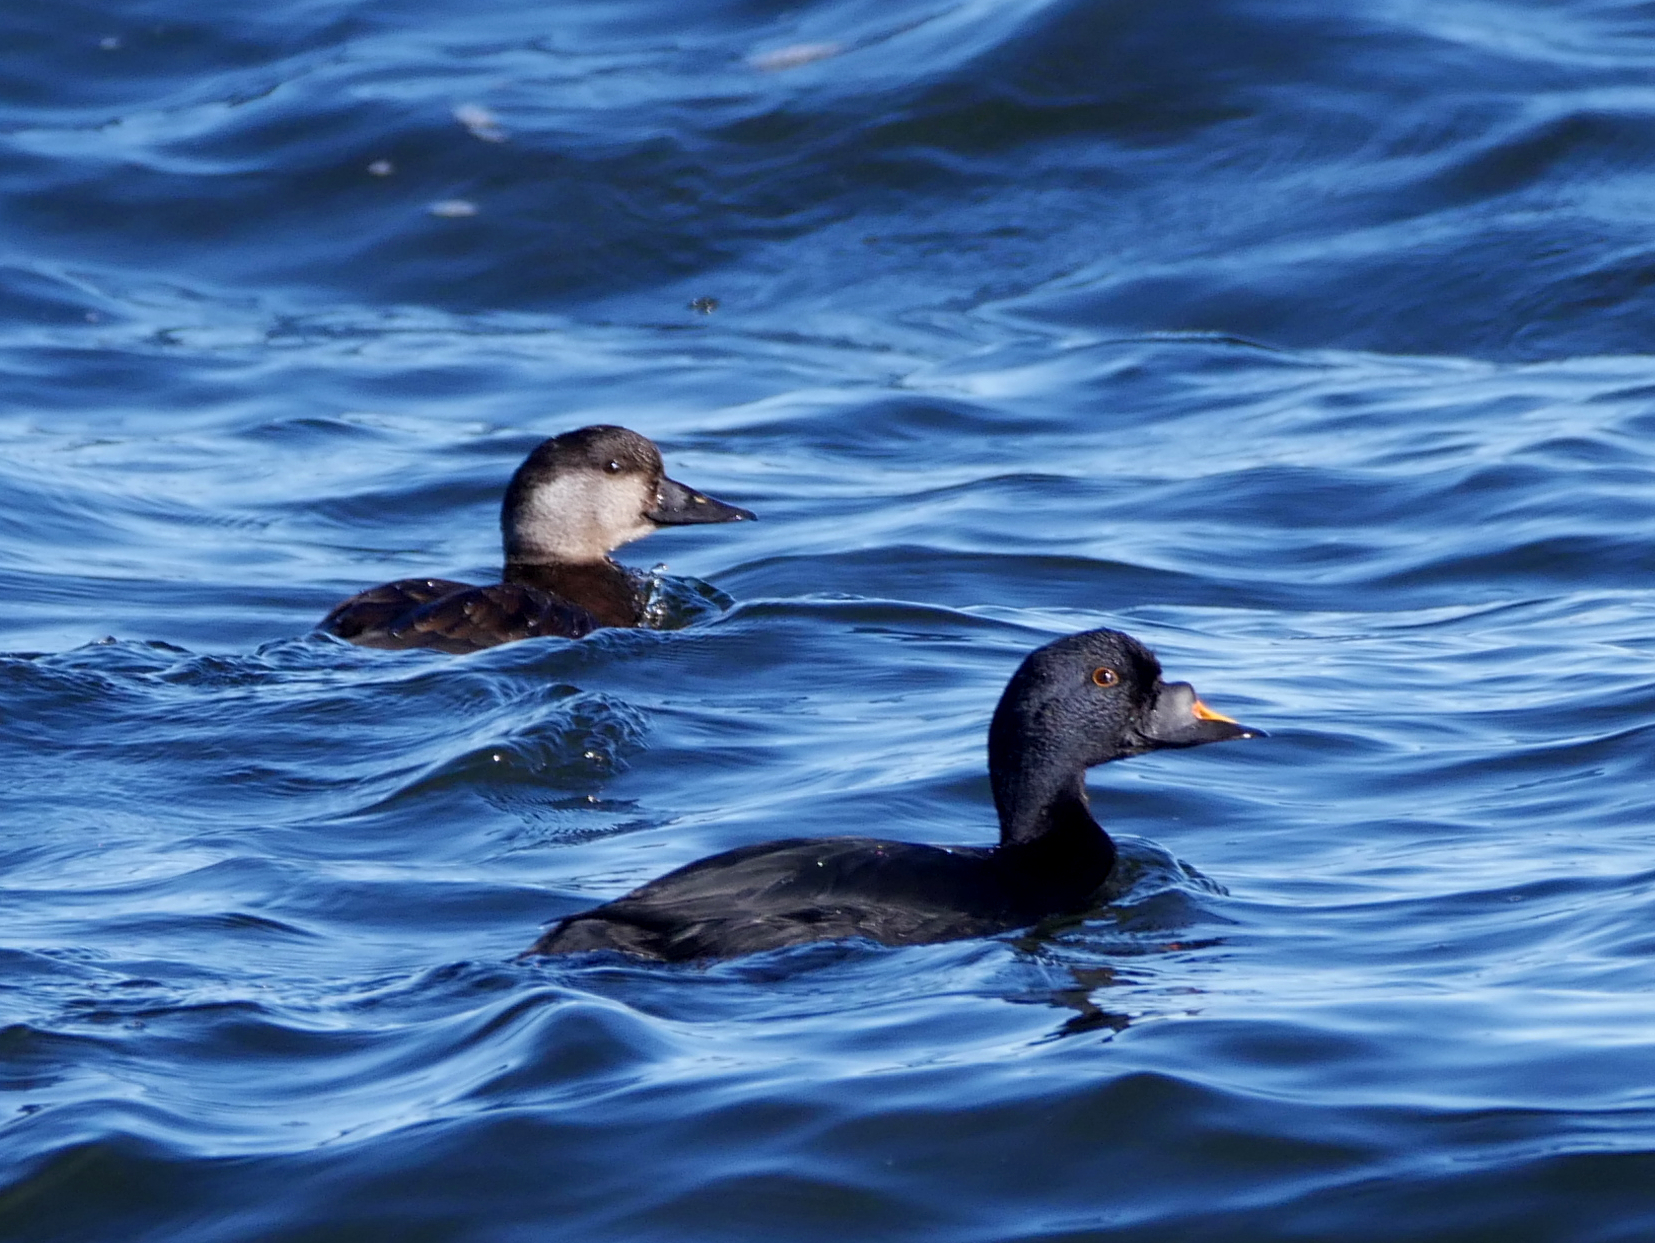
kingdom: Animalia
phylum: Chordata
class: Aves
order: Anseriformes
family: Anatidae
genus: Melanitta
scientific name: Melanitta nigra
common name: Common scoter
